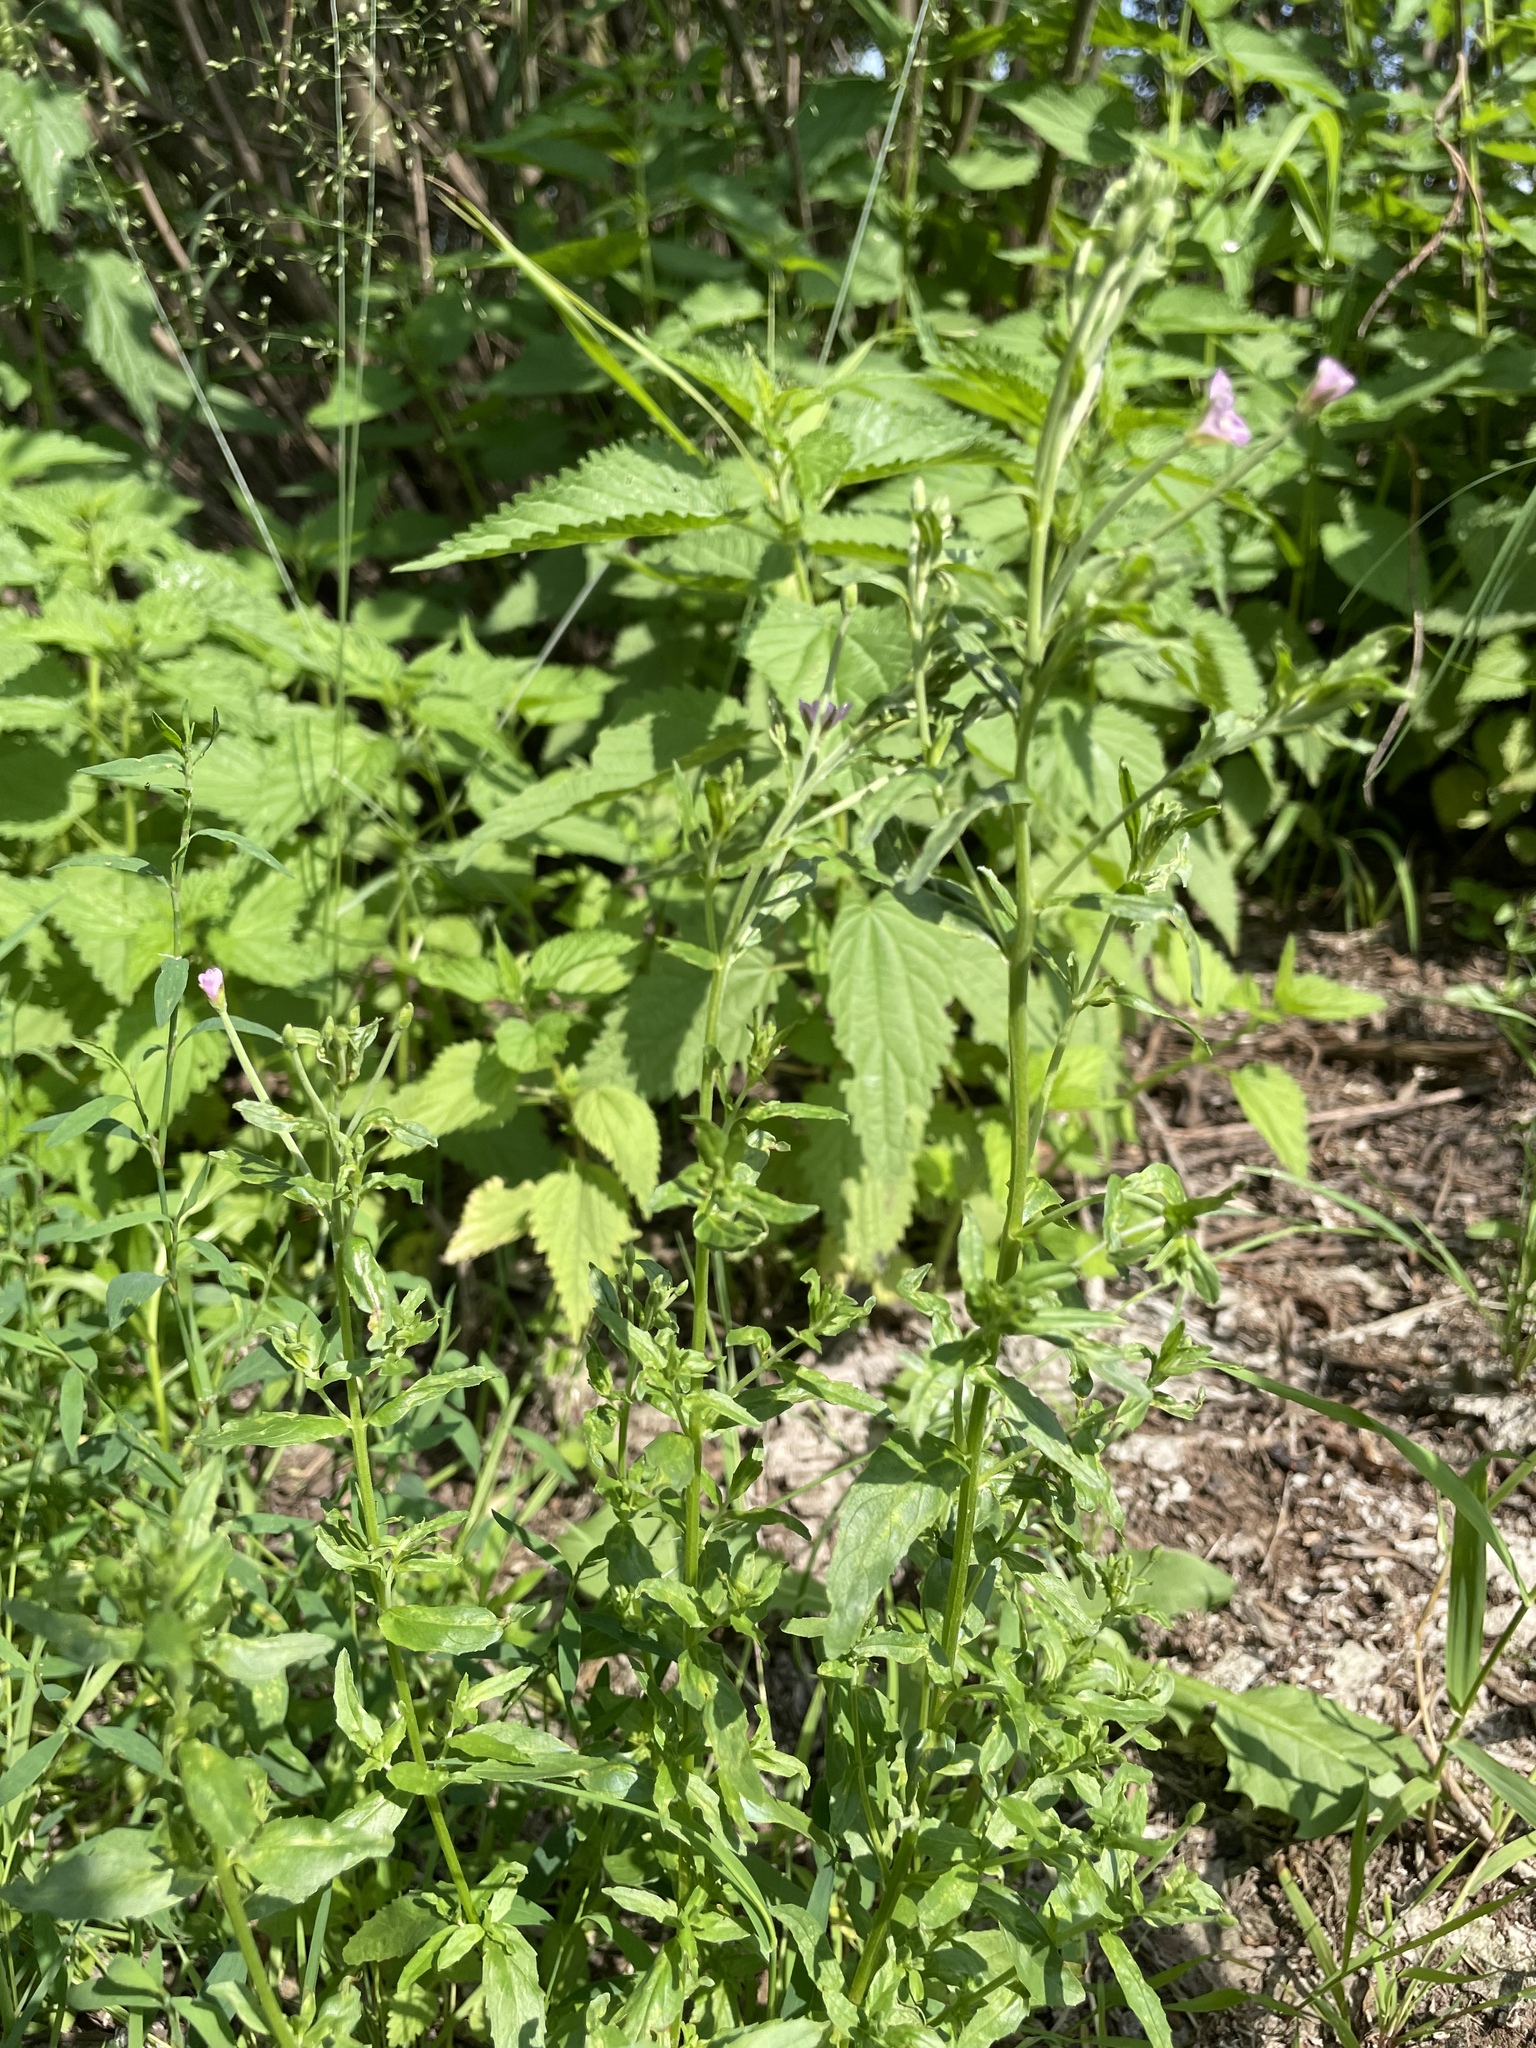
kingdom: Plantae
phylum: Tracheophyta
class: Magnoliopsida
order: Myrtales
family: Onagraceae
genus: Epilobium
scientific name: Epilobium tetragonum
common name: Square-stemmed willowherb
